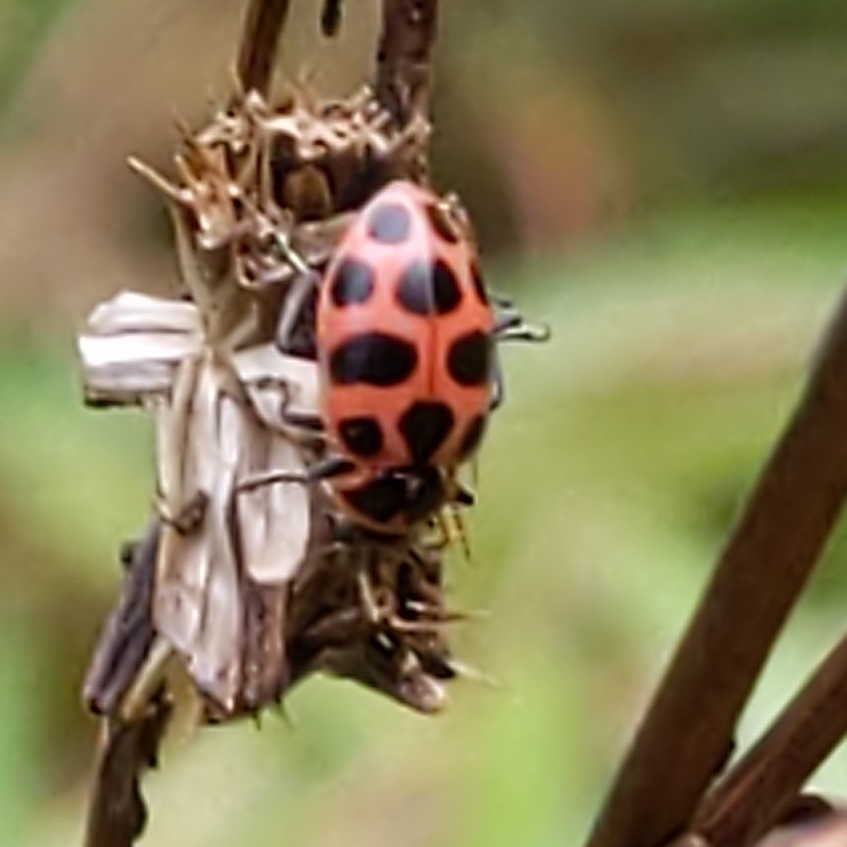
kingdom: Animalia
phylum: Arthropoda
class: Insecta
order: Coleoptera
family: Coccinellidae
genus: Coleomegilla
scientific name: Coleomegilla maculata
